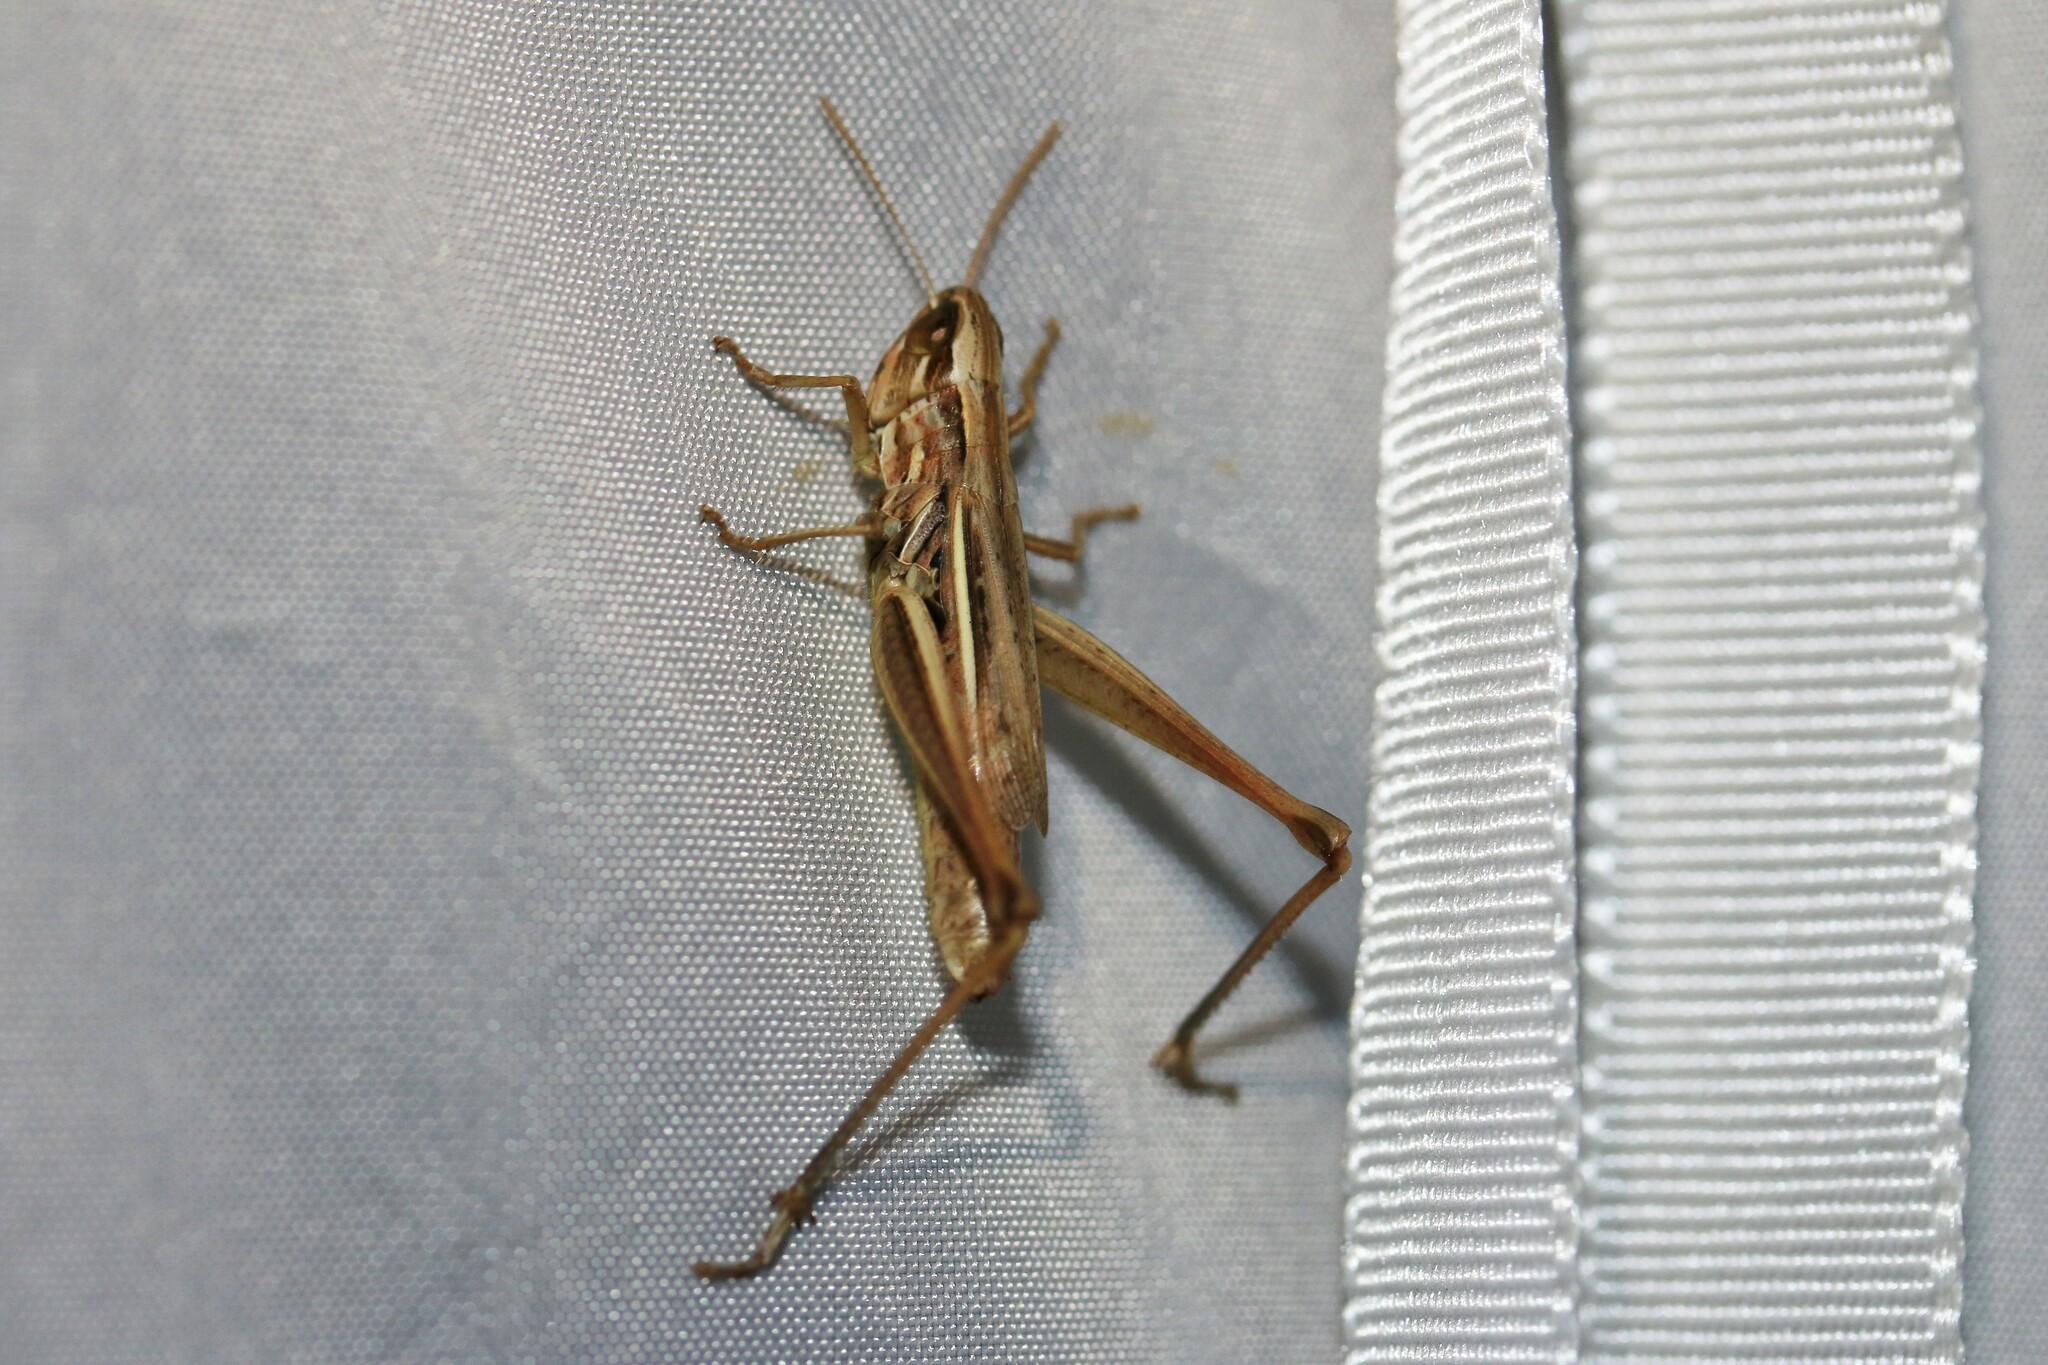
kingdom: Animalia
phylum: Arthropoda
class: Insecta
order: Orthoptera
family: Acrididae
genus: Euchorthippus
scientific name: Euchorthippus declivus
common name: Common straw grasshopper
